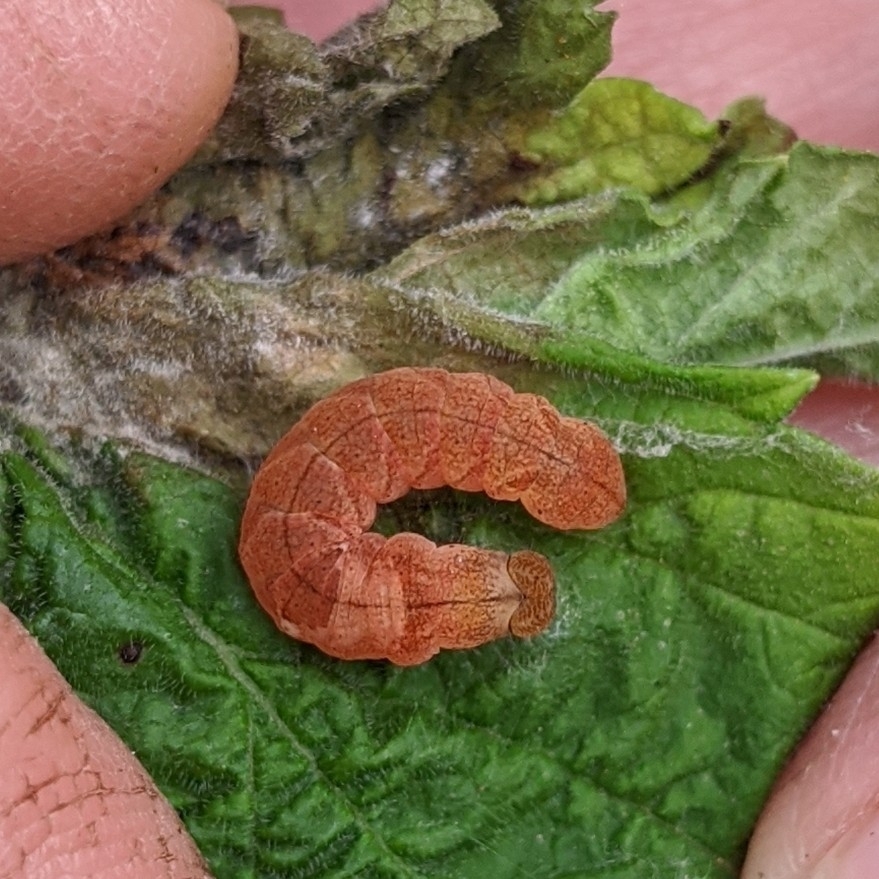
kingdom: Animalia
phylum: Arthropoda
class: Insecta
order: Lepidoptera
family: Drepanidae
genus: Pseudothyatira
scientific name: Pseudothyatira cymatophoroides
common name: Tufted thyatirid moth
